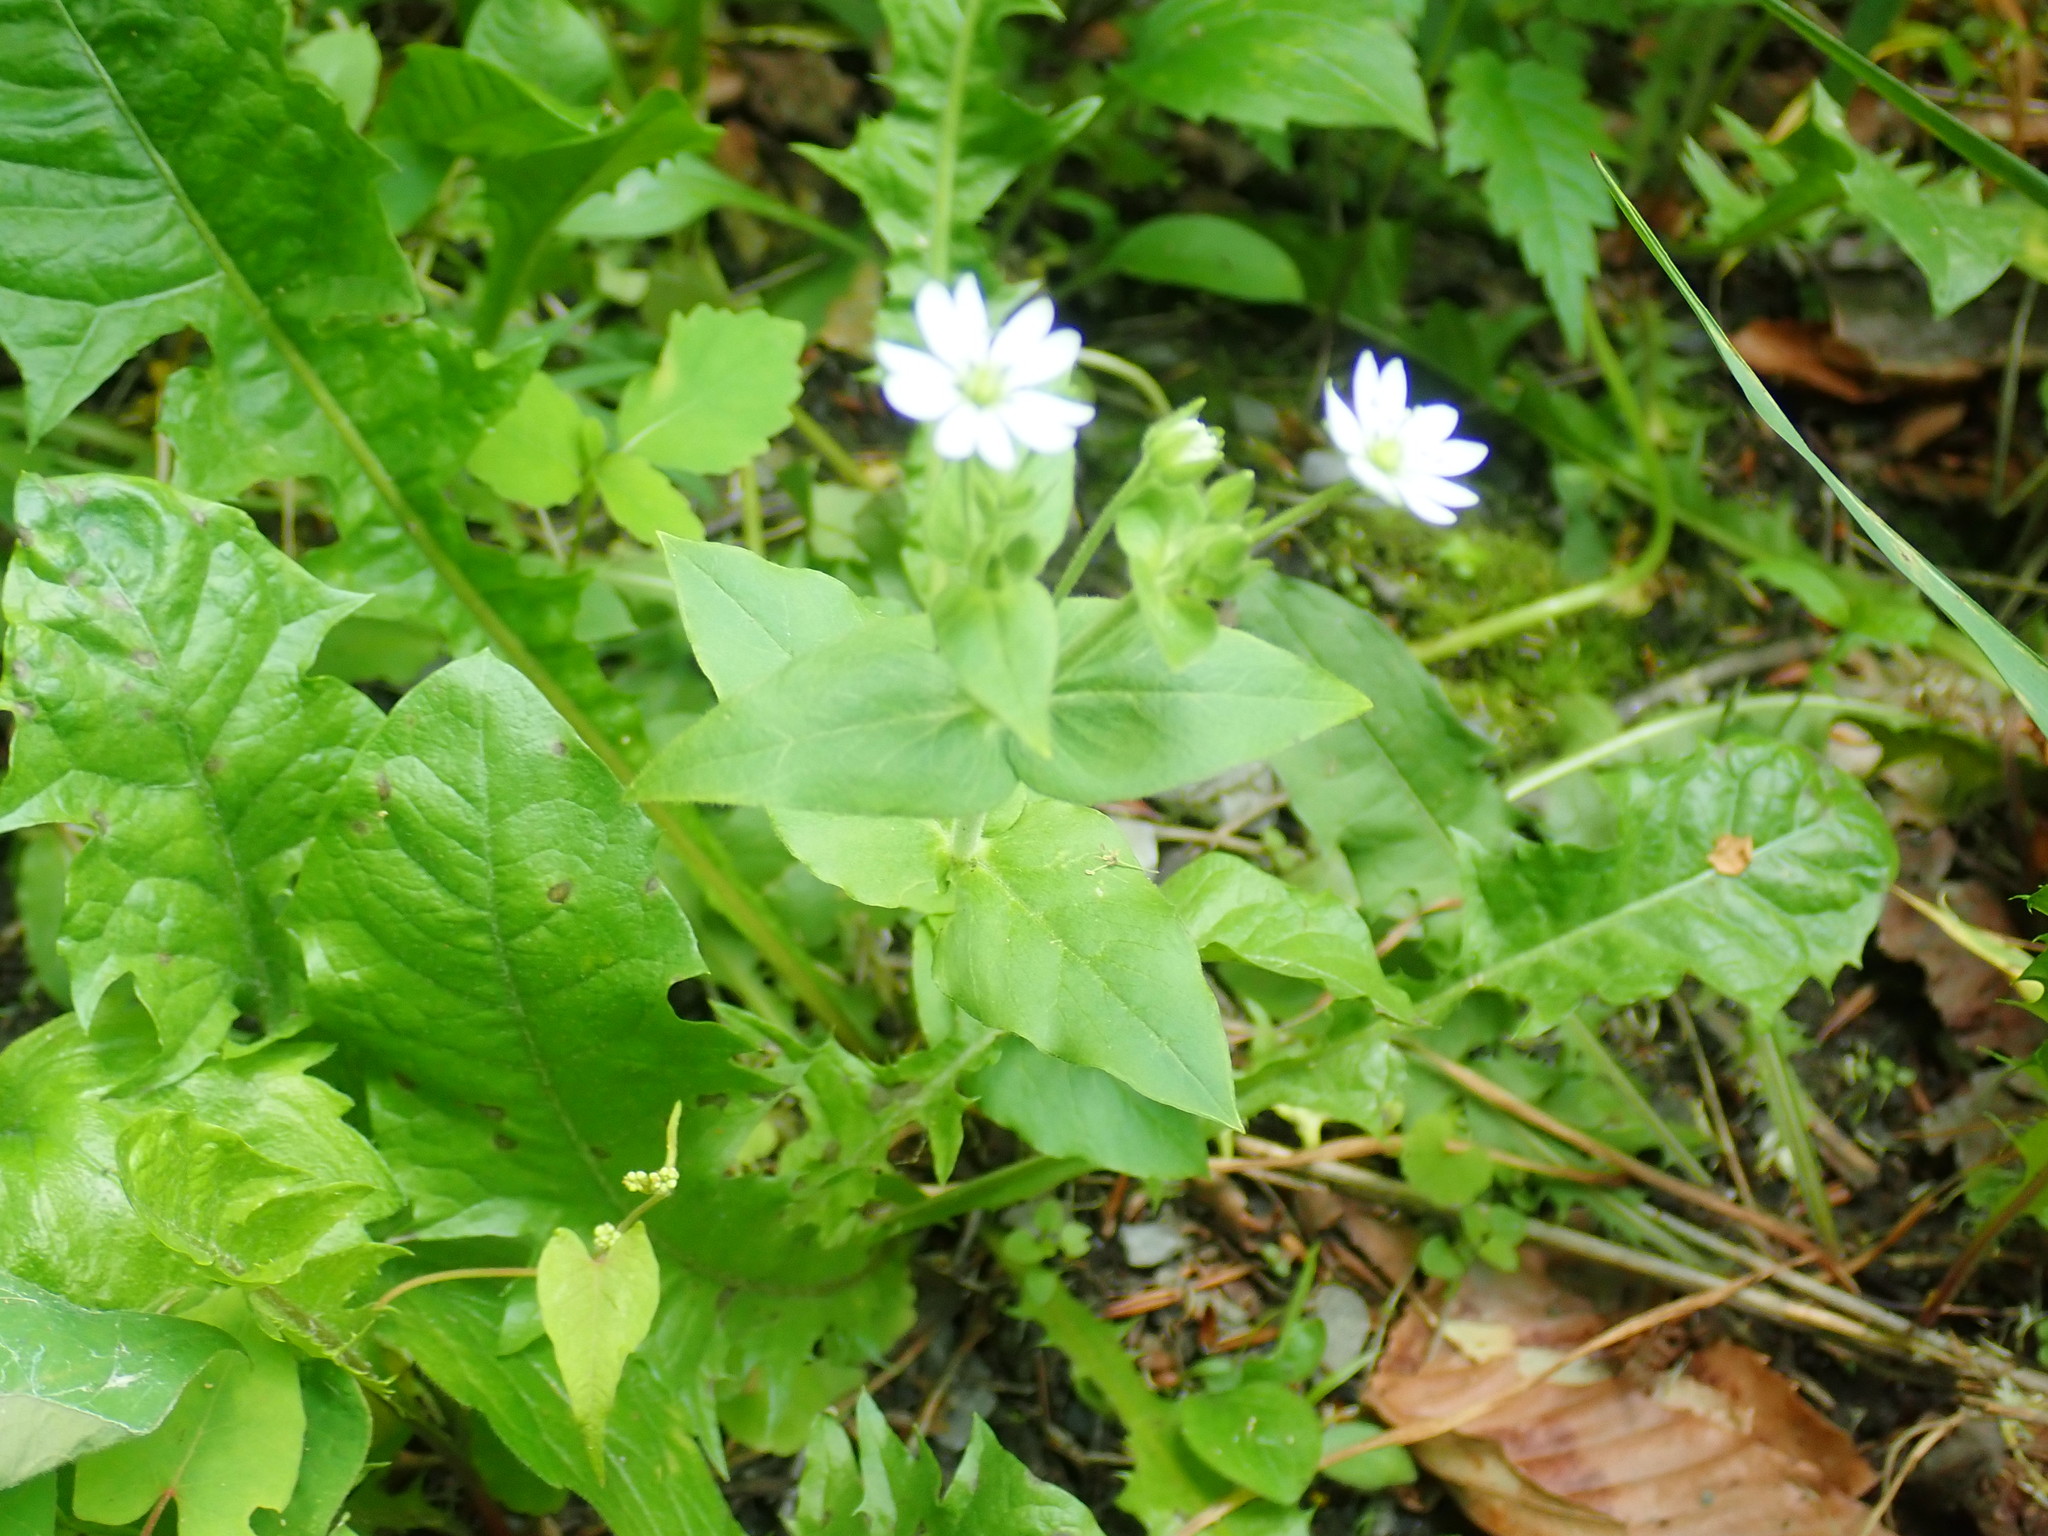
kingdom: Plantae
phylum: Tracheophyta
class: Magnoliopsida
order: Caryophyllales
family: Caryophyllaceae
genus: Stellaria
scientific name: Stellaria aquatica
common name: Water chickweed
